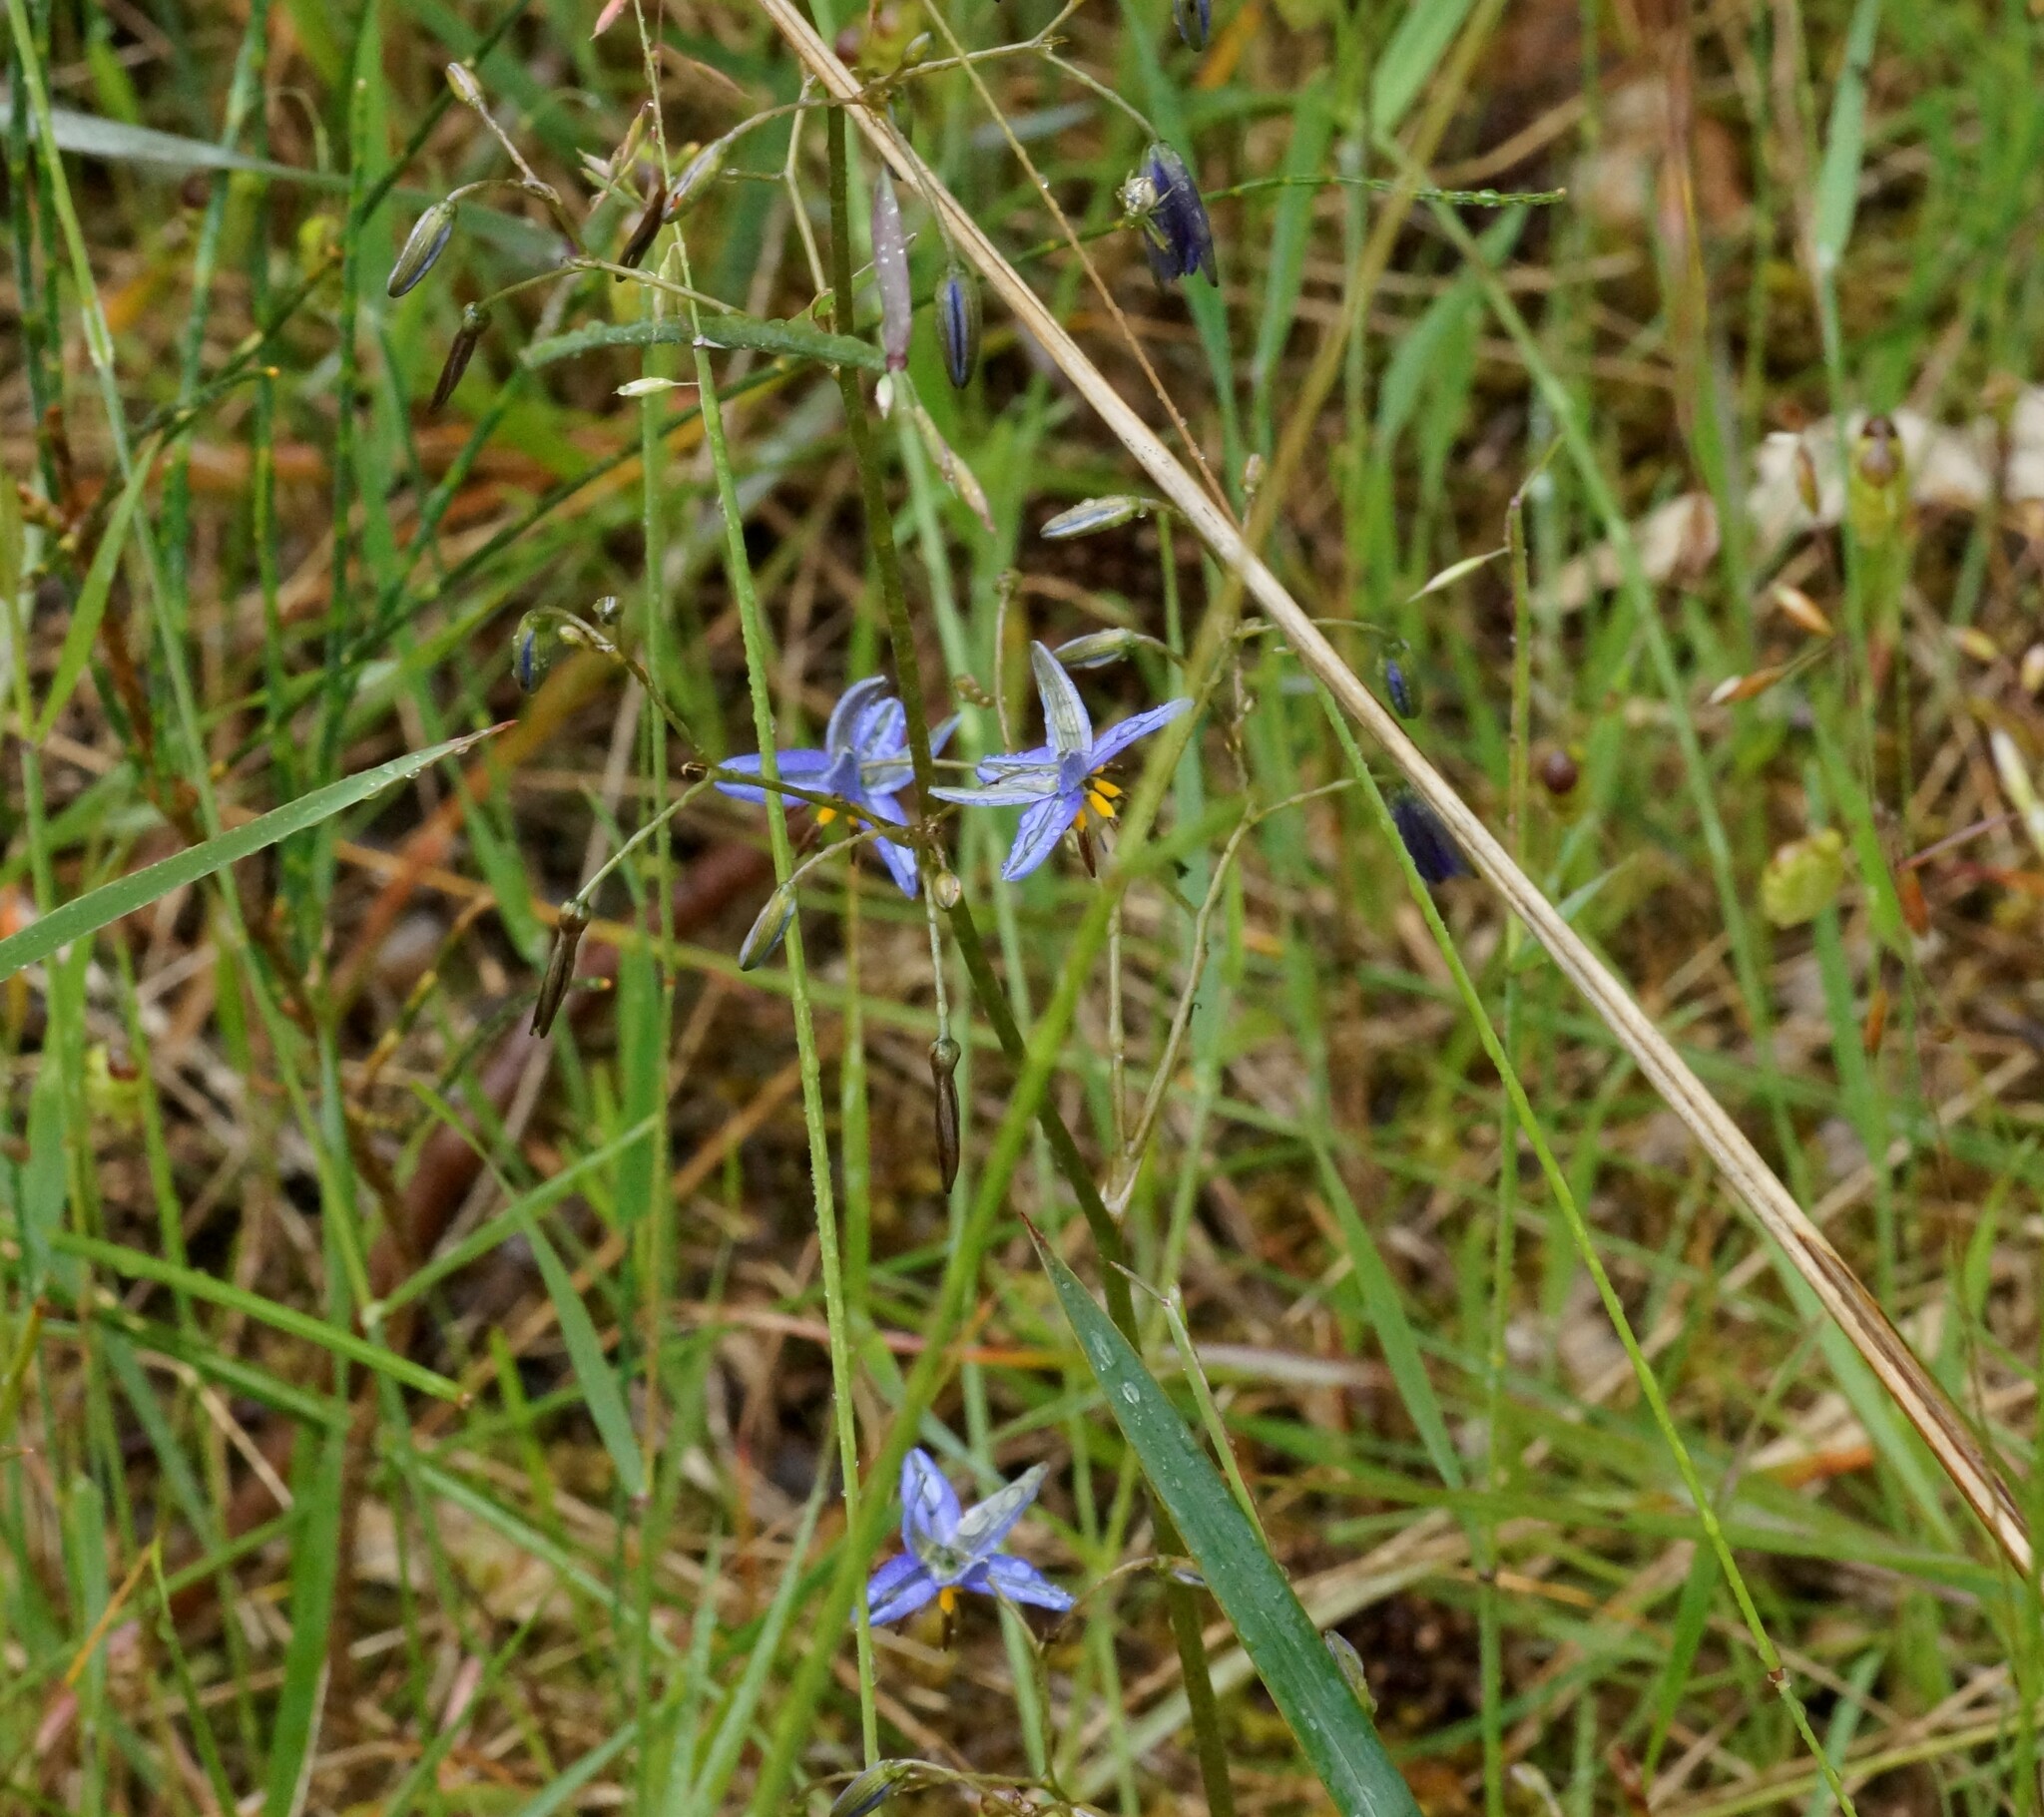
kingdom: Plantae
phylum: Tracheophyta
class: Liliopsida
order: Asparagales
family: Asphodelaceae
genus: Dianella
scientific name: Dianella revoluta
